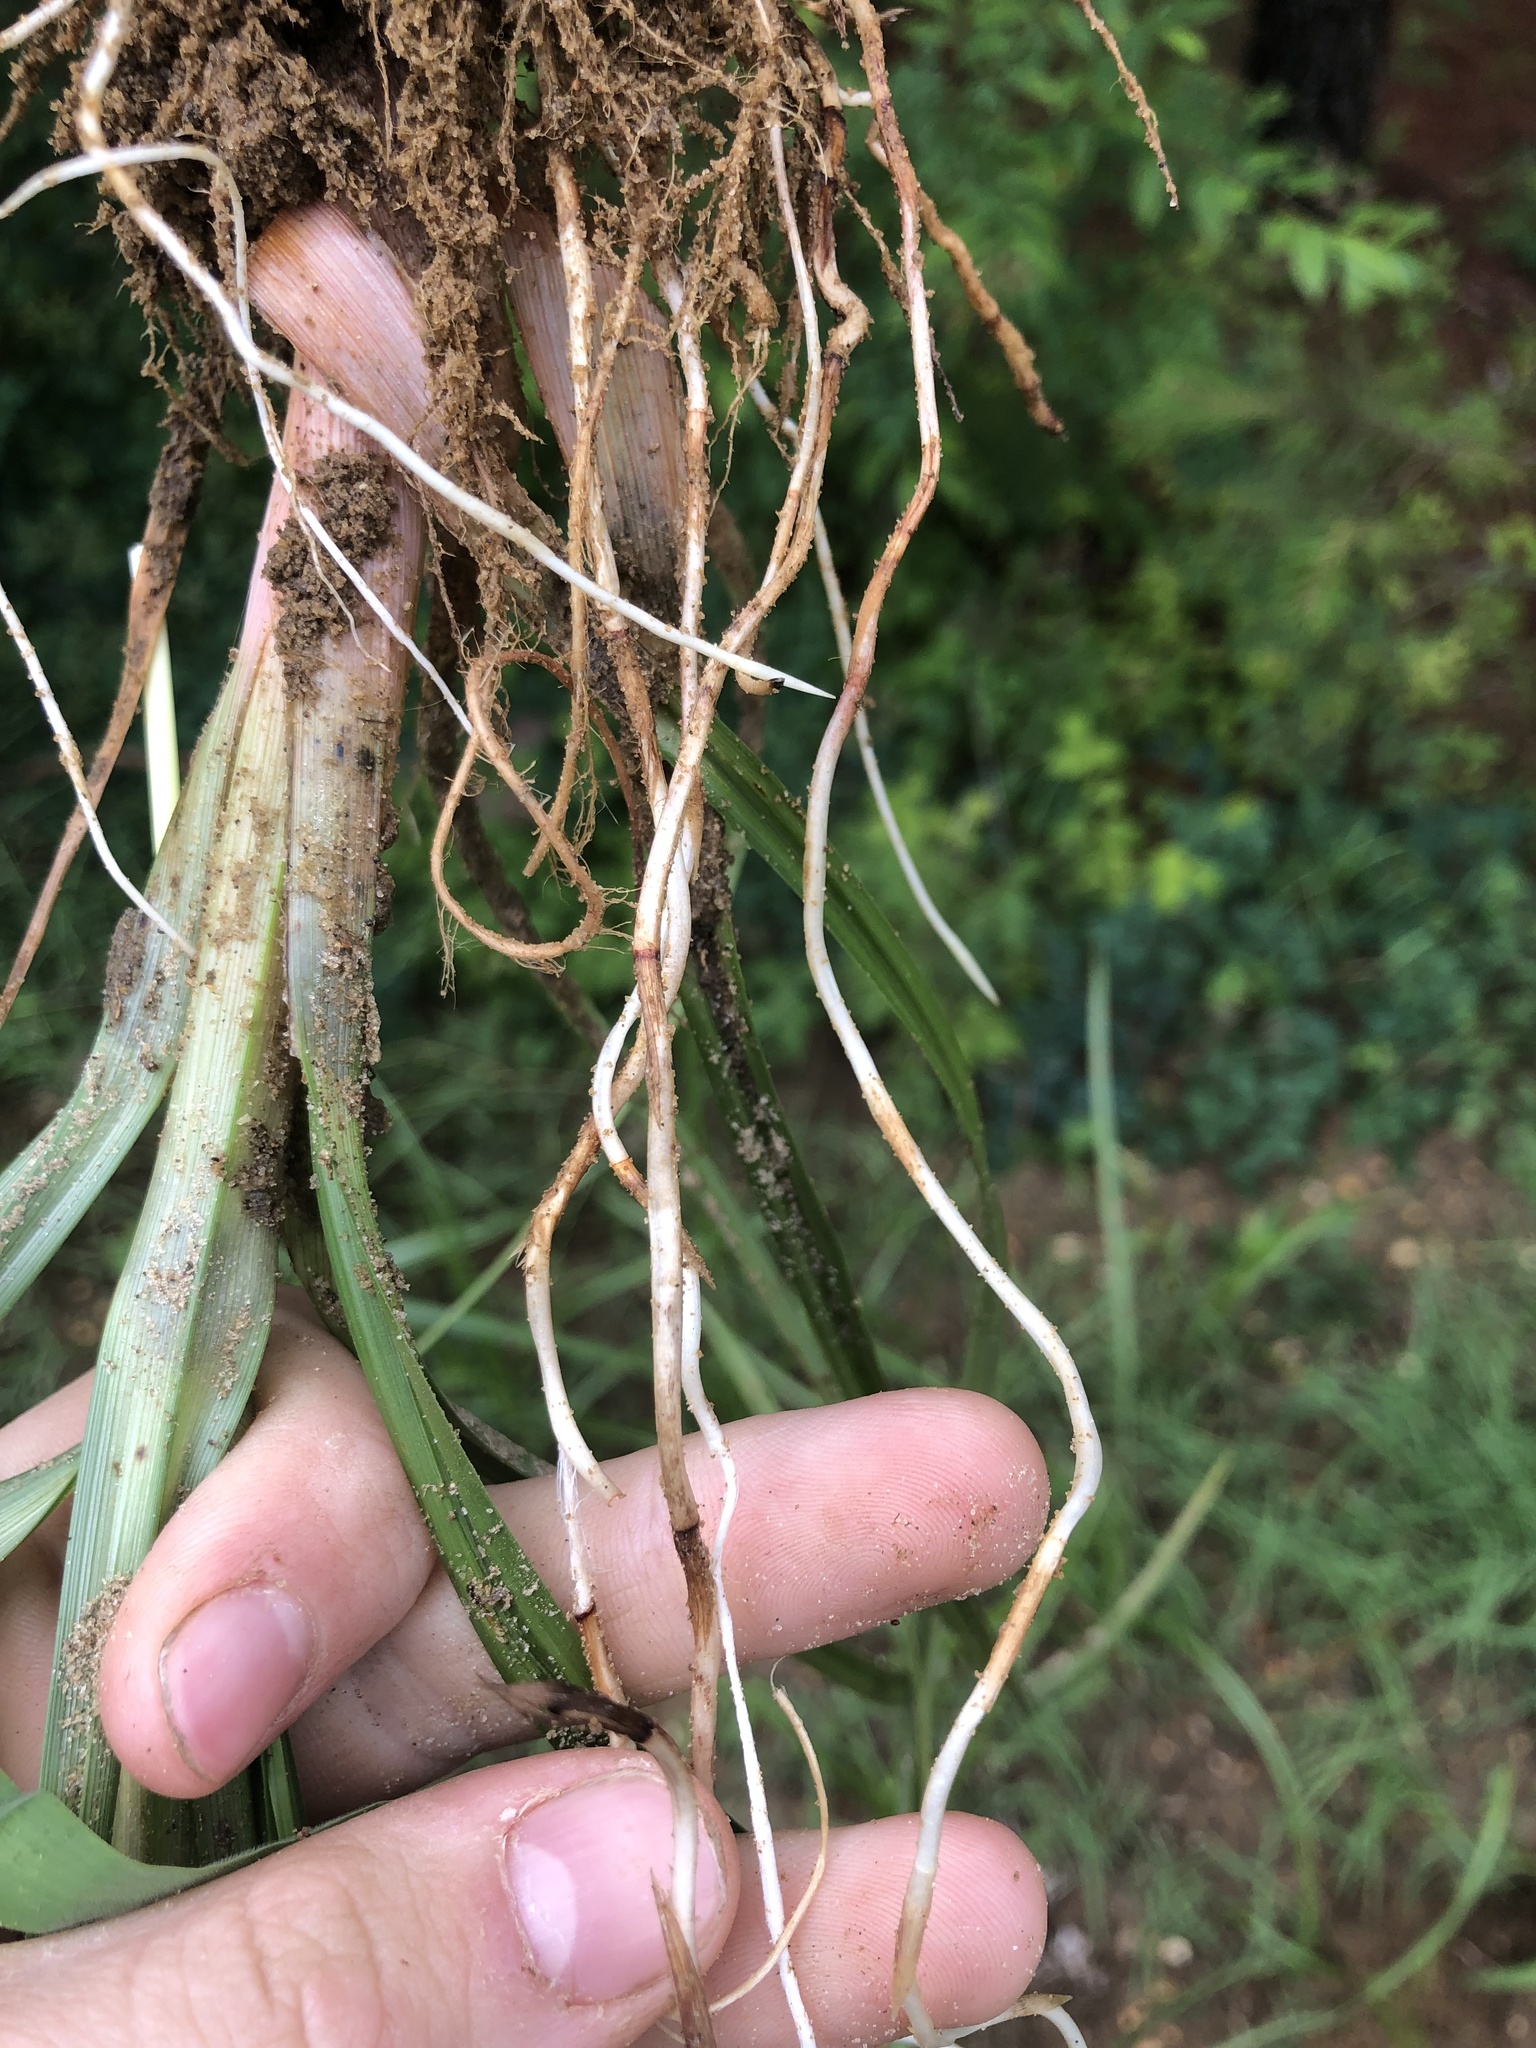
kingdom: Plantae
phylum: Tracheophyta
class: Liliopsida
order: Poales
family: Cyperaceae
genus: Cyperus
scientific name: Cyperus esculentus
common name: Yellow nutsedge
